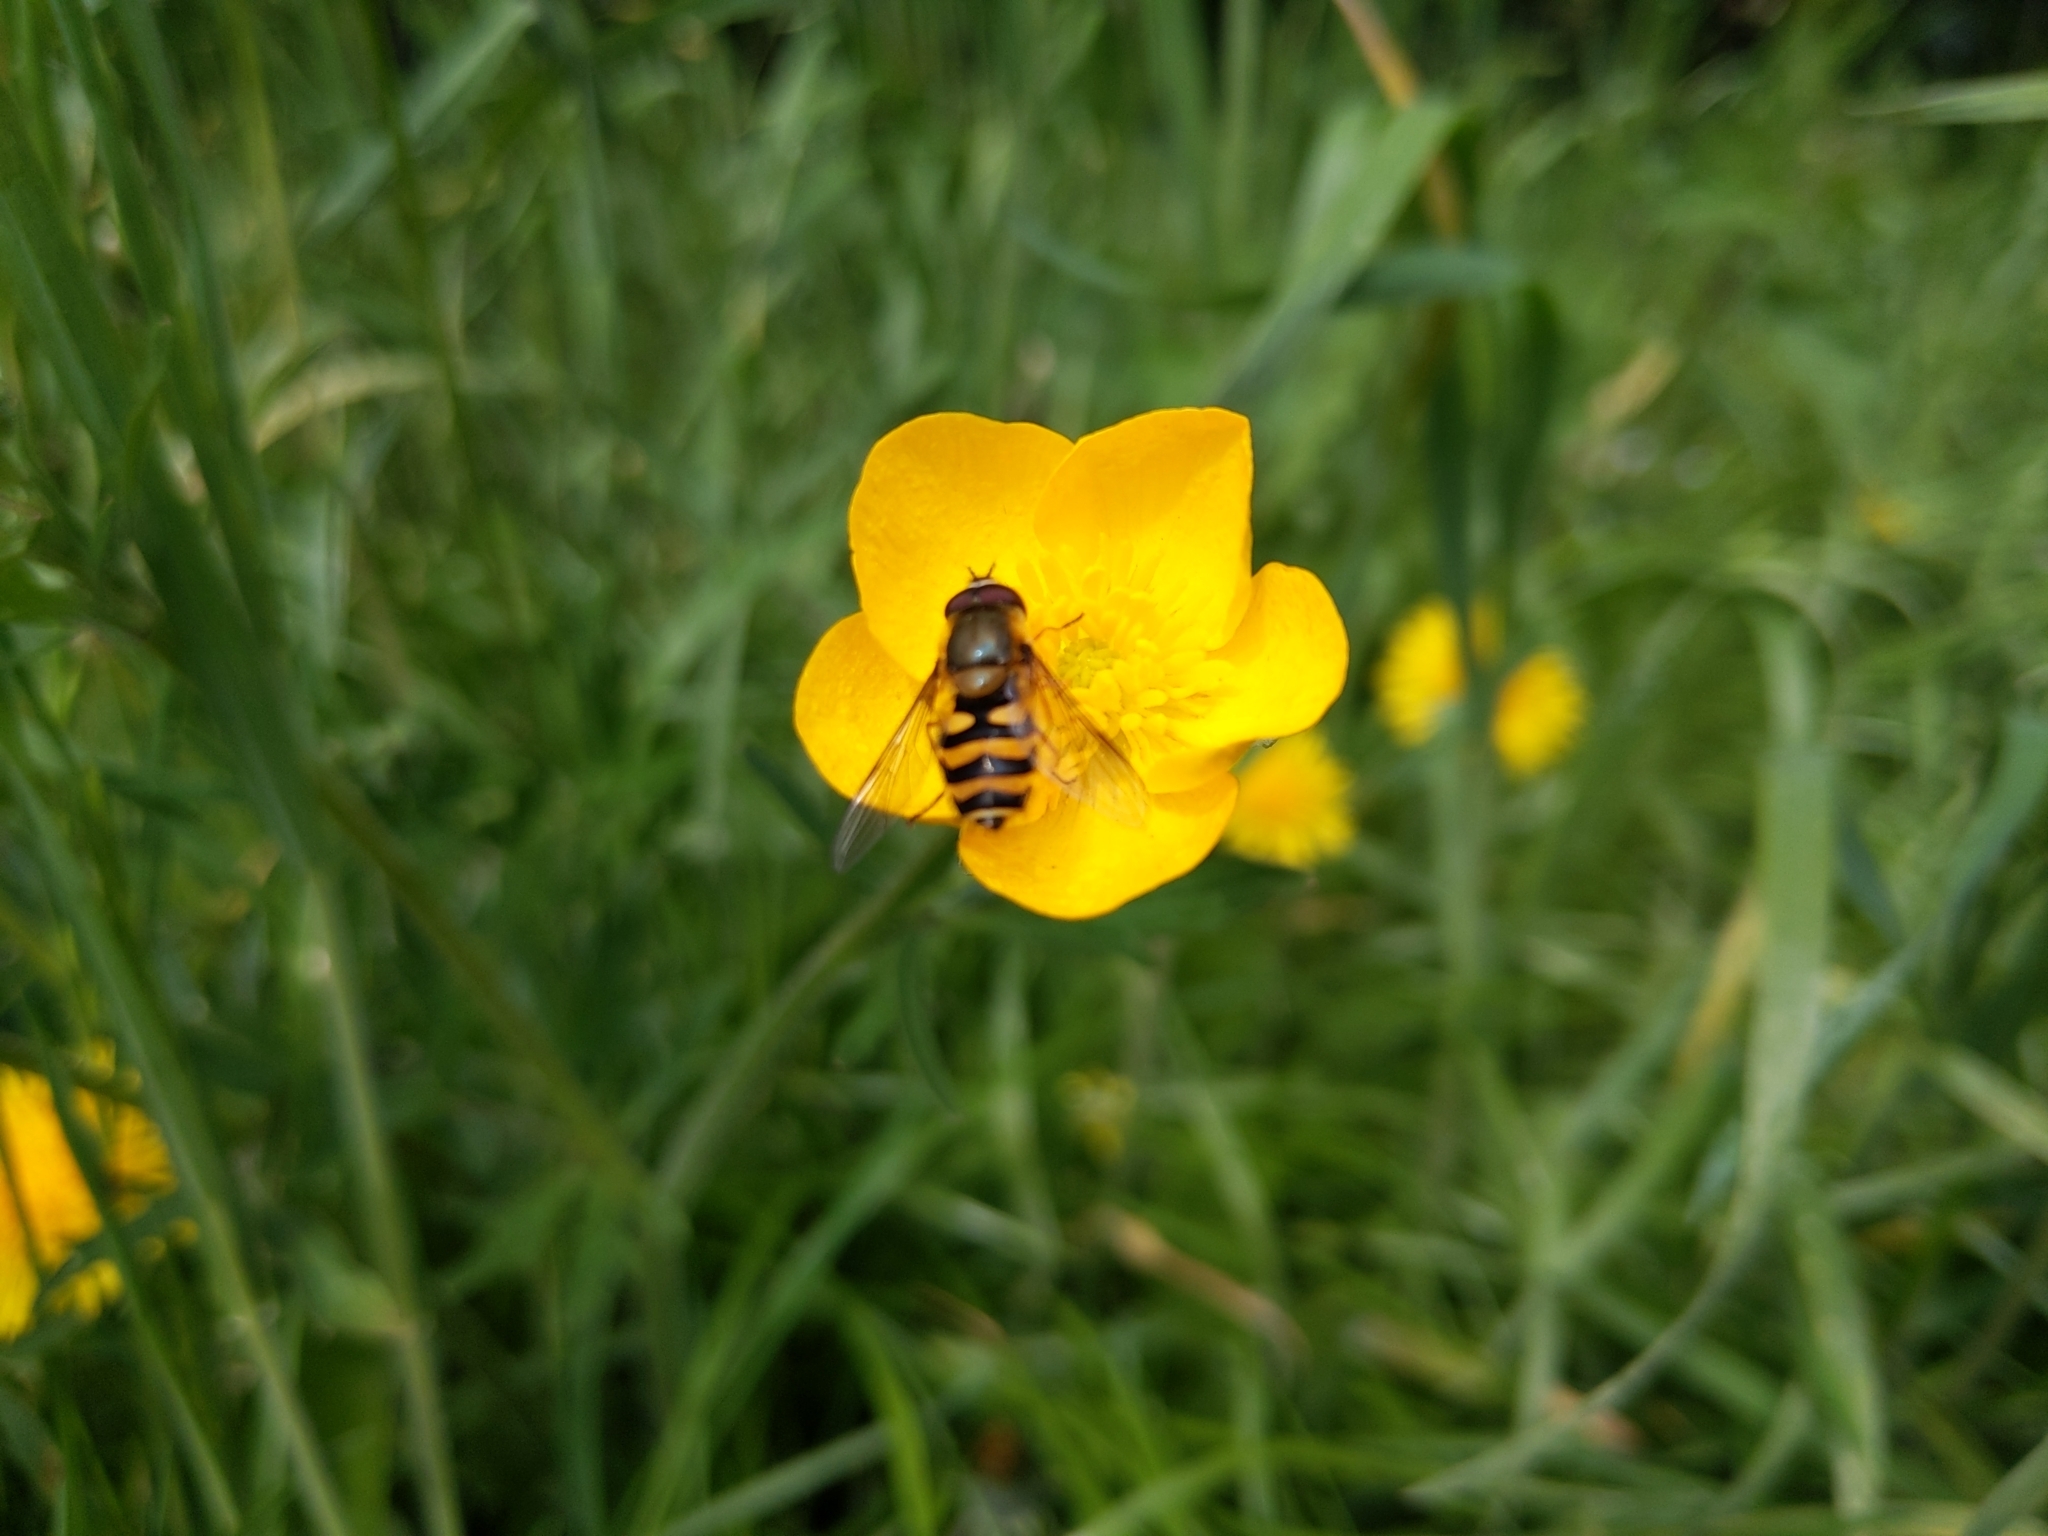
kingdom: Animalia
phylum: Arthropoda
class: Insecta
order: Diptera
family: Syrphidae
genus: Syrphus
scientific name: Syrphus
